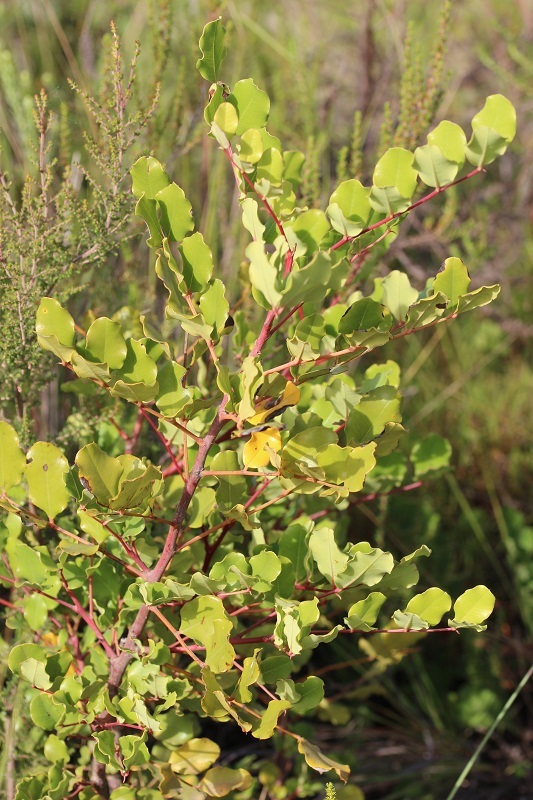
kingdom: Plantae
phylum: Tracheophyta
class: Magnoliopsida
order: Fabales
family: Fabaceae
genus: Ceratonia
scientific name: Ceratonia siliqua
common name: Carob
